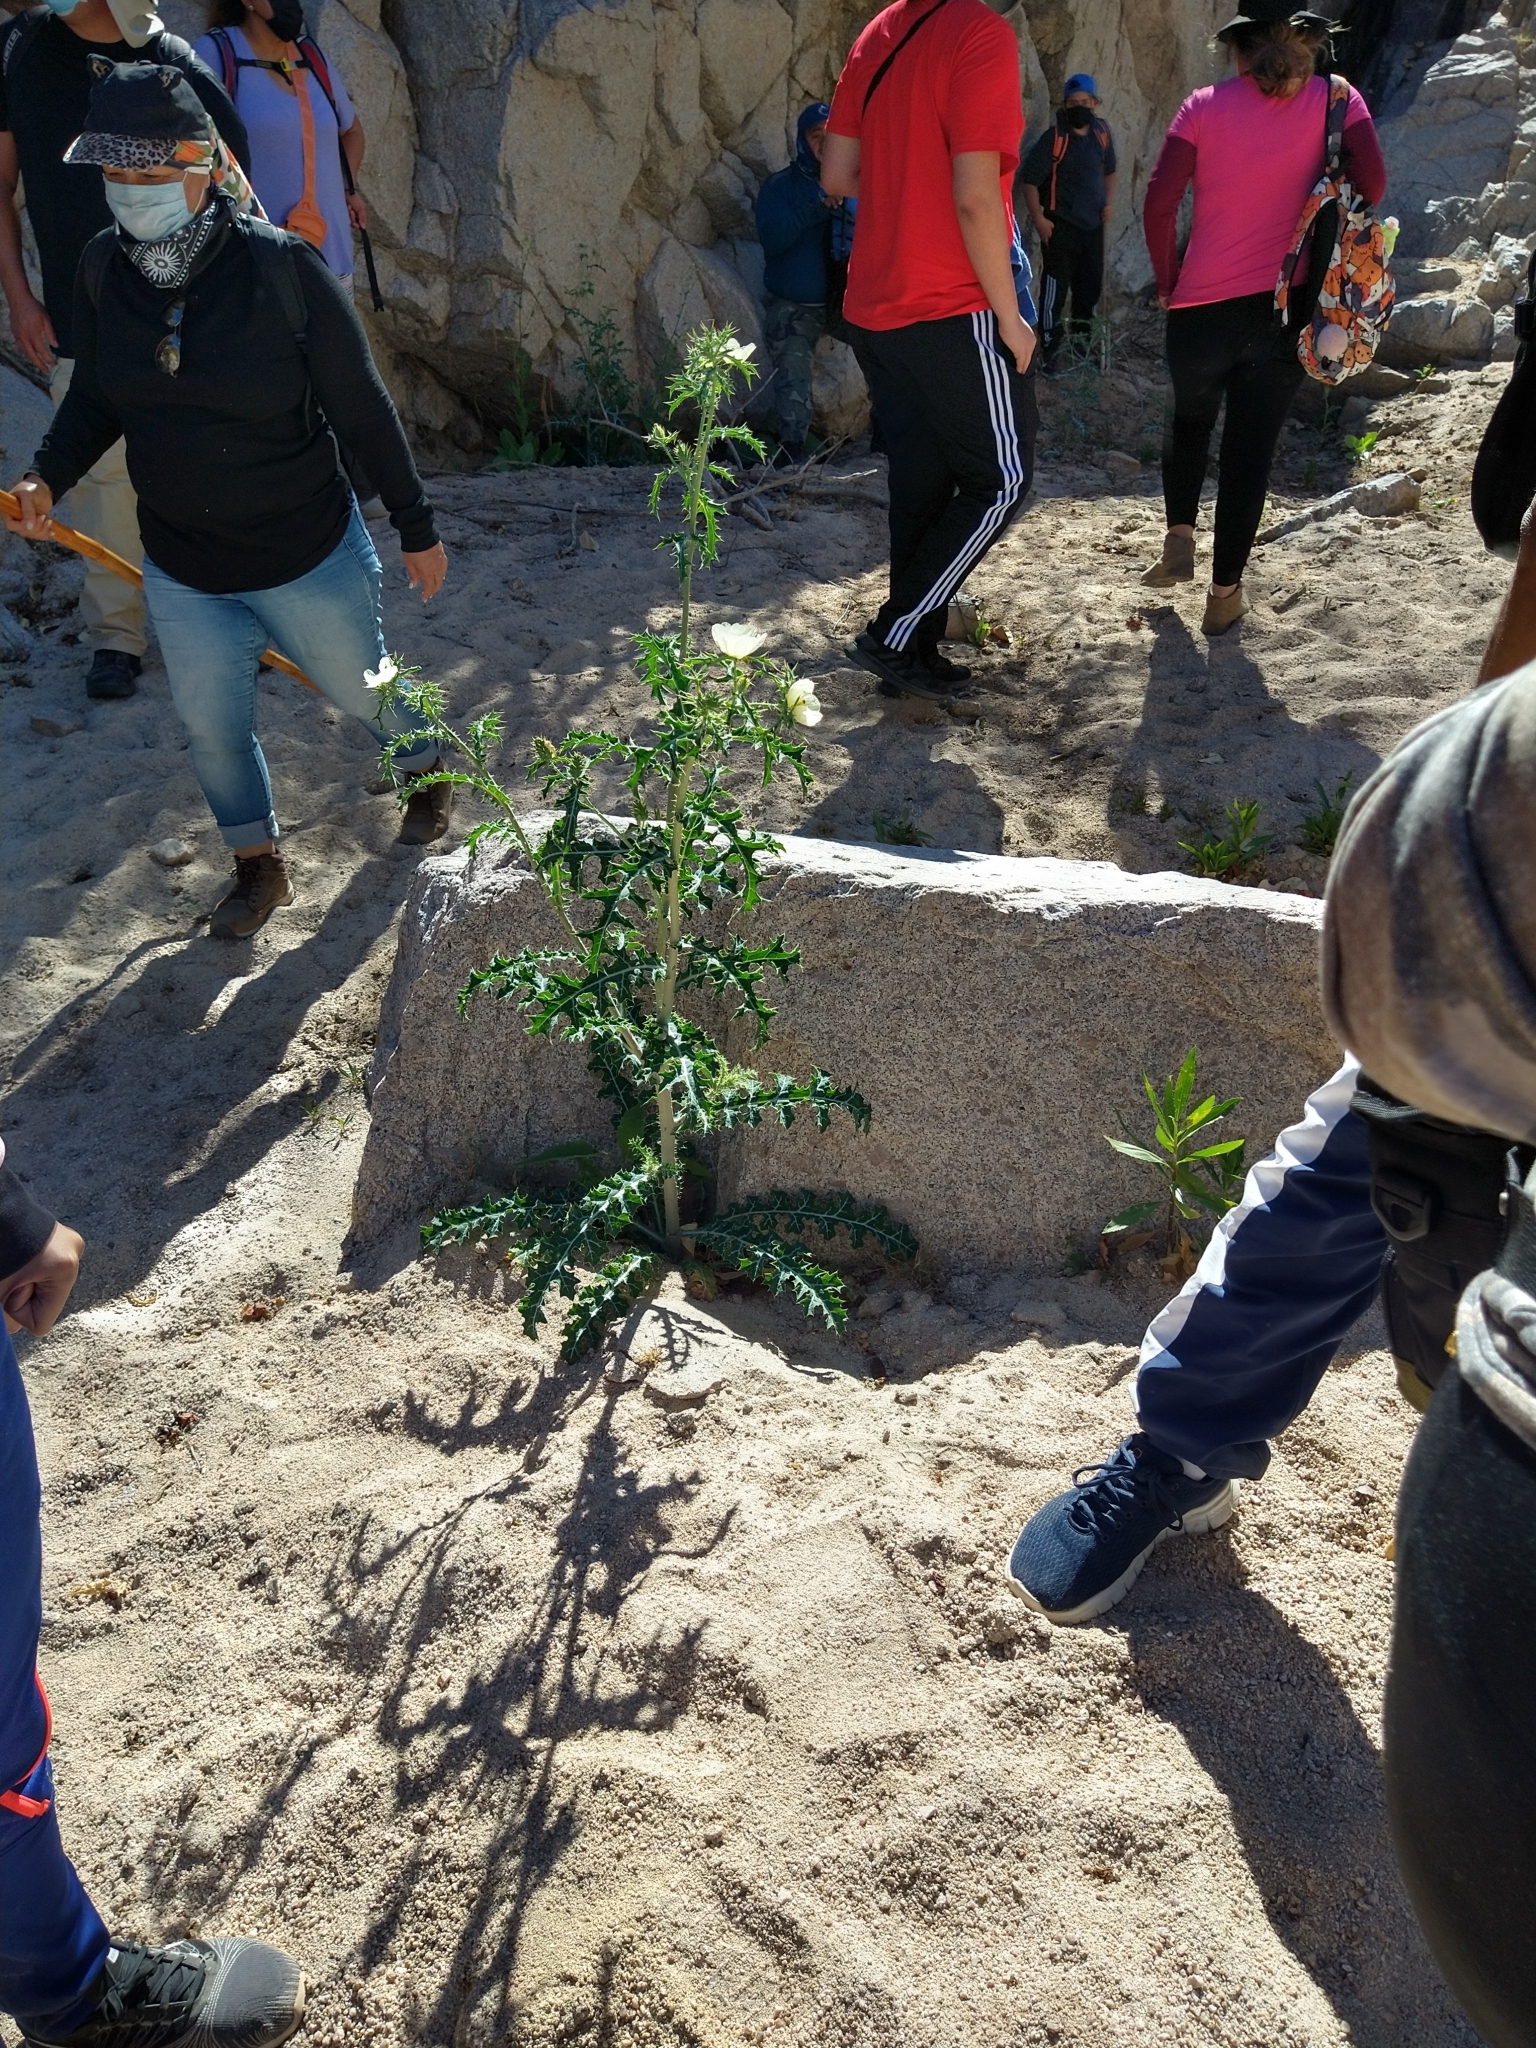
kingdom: Plantae
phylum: Tracheophyta
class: Magnoliopsida
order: Ranunculales
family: Papaveraceae
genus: Argemone
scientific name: Argemone ochroleuca
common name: White-flower mexican-poppy
